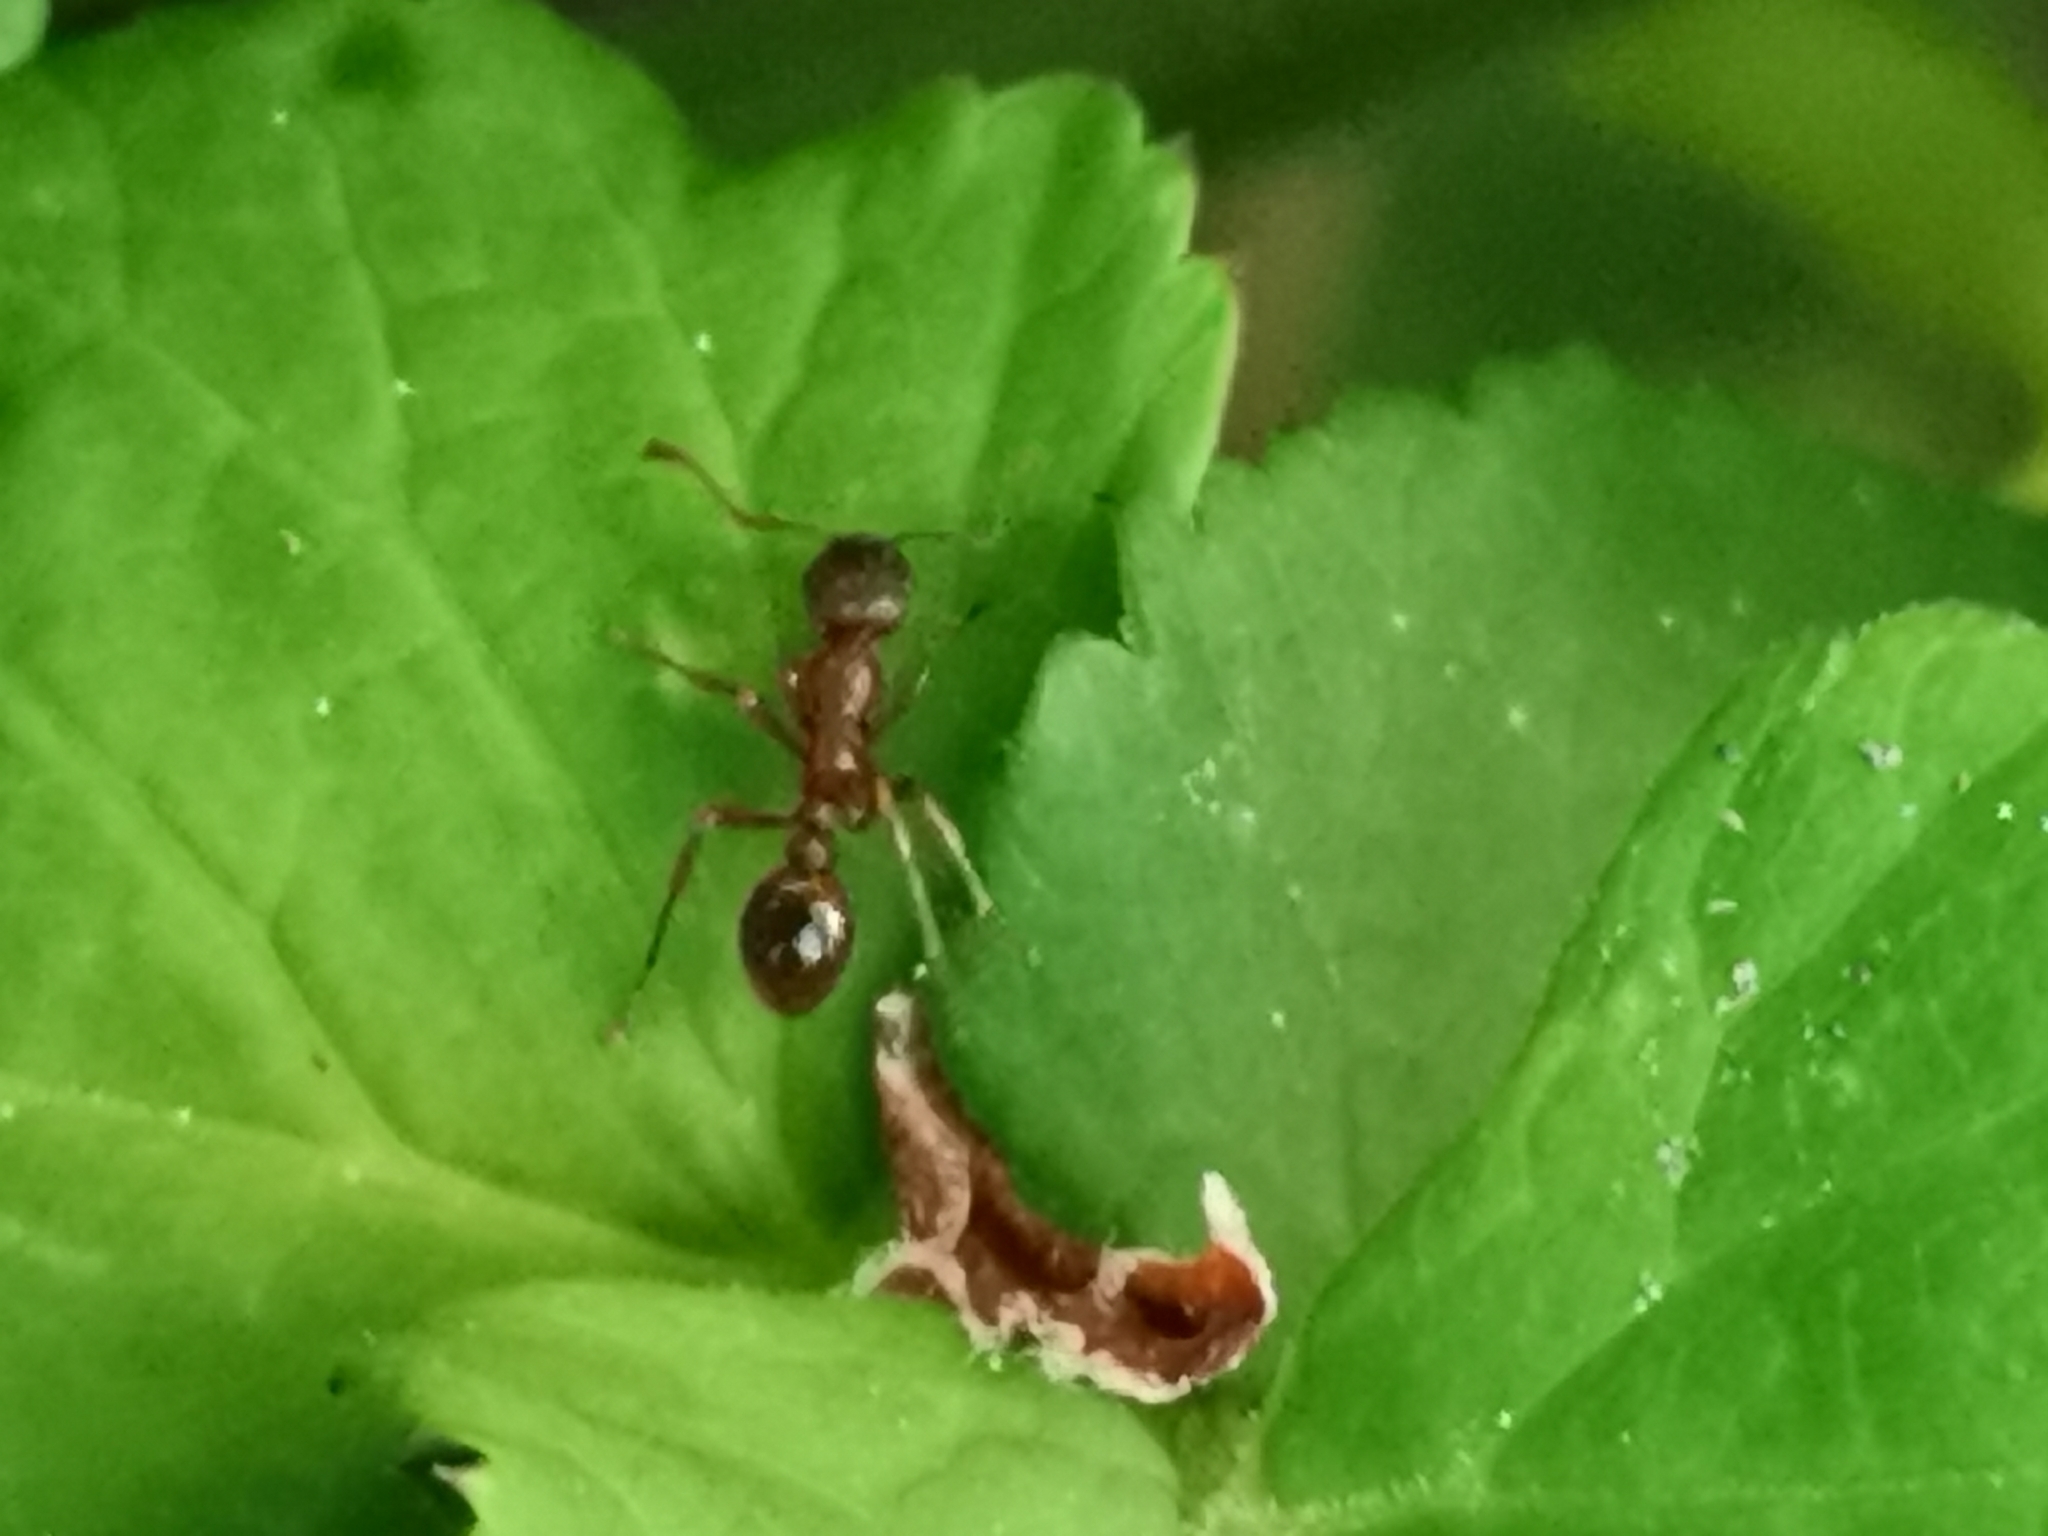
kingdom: Animalia
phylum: Arthropoda
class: Insecta
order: Hymenoptera
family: Formicidae
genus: Myrmica
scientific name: Myrmica rubra
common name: European fire ant
